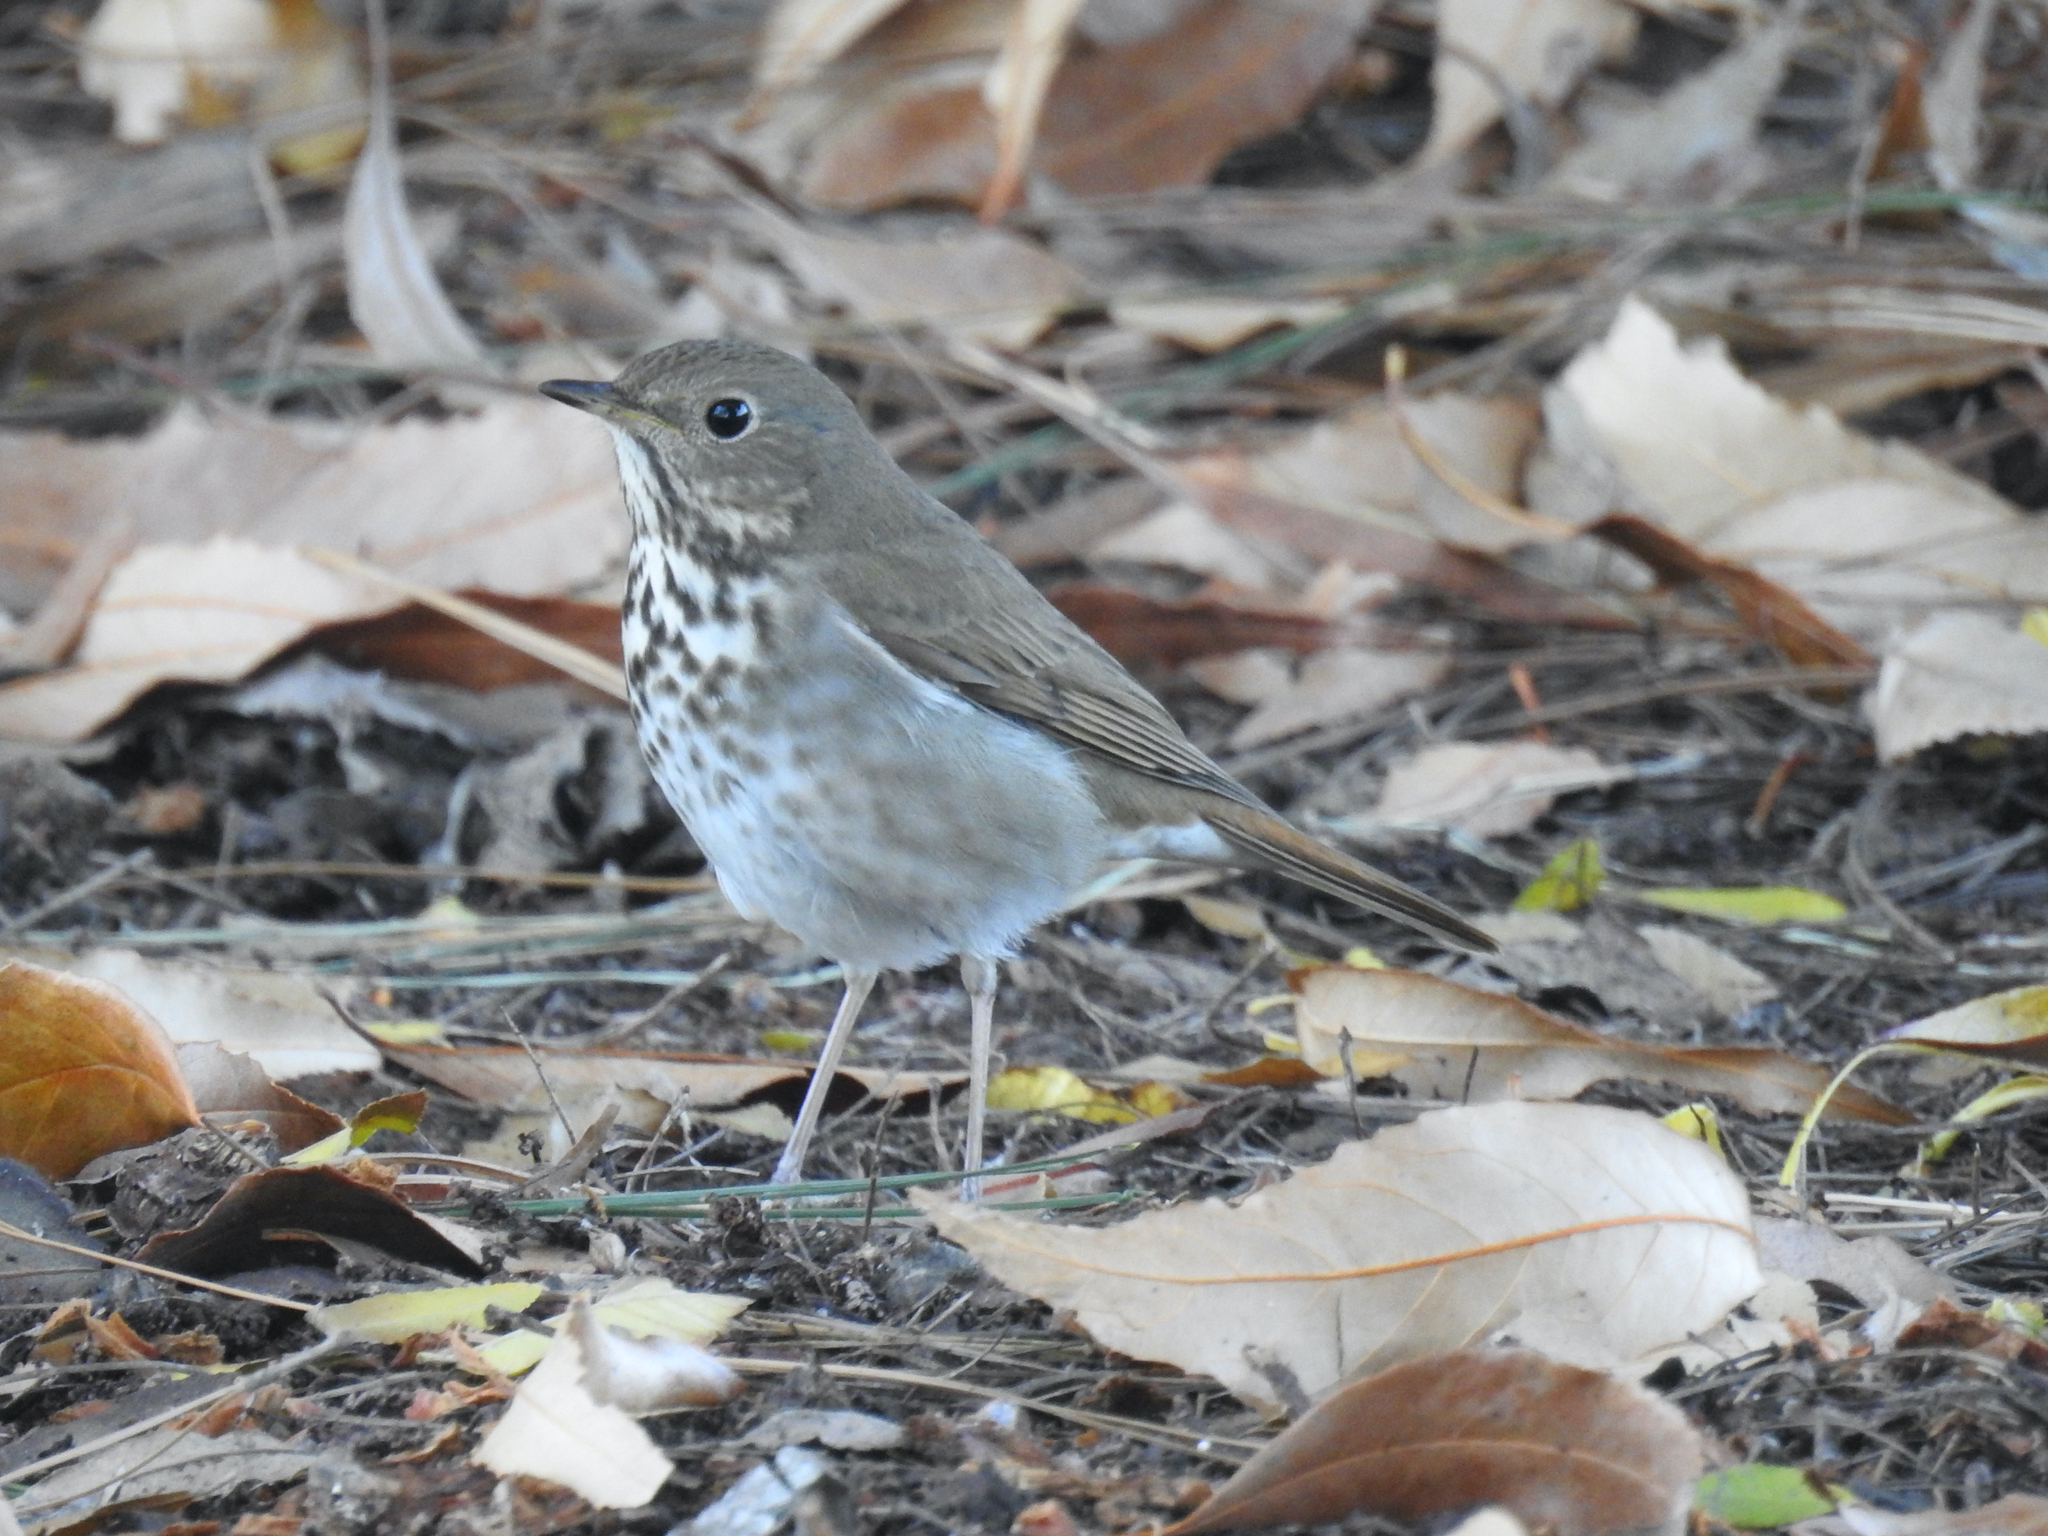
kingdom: Animalia
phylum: Chordata
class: Aves
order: Passeriformes
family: Turdidae
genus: Catharus
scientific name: Catharus guttatus
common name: Hermit thrush
